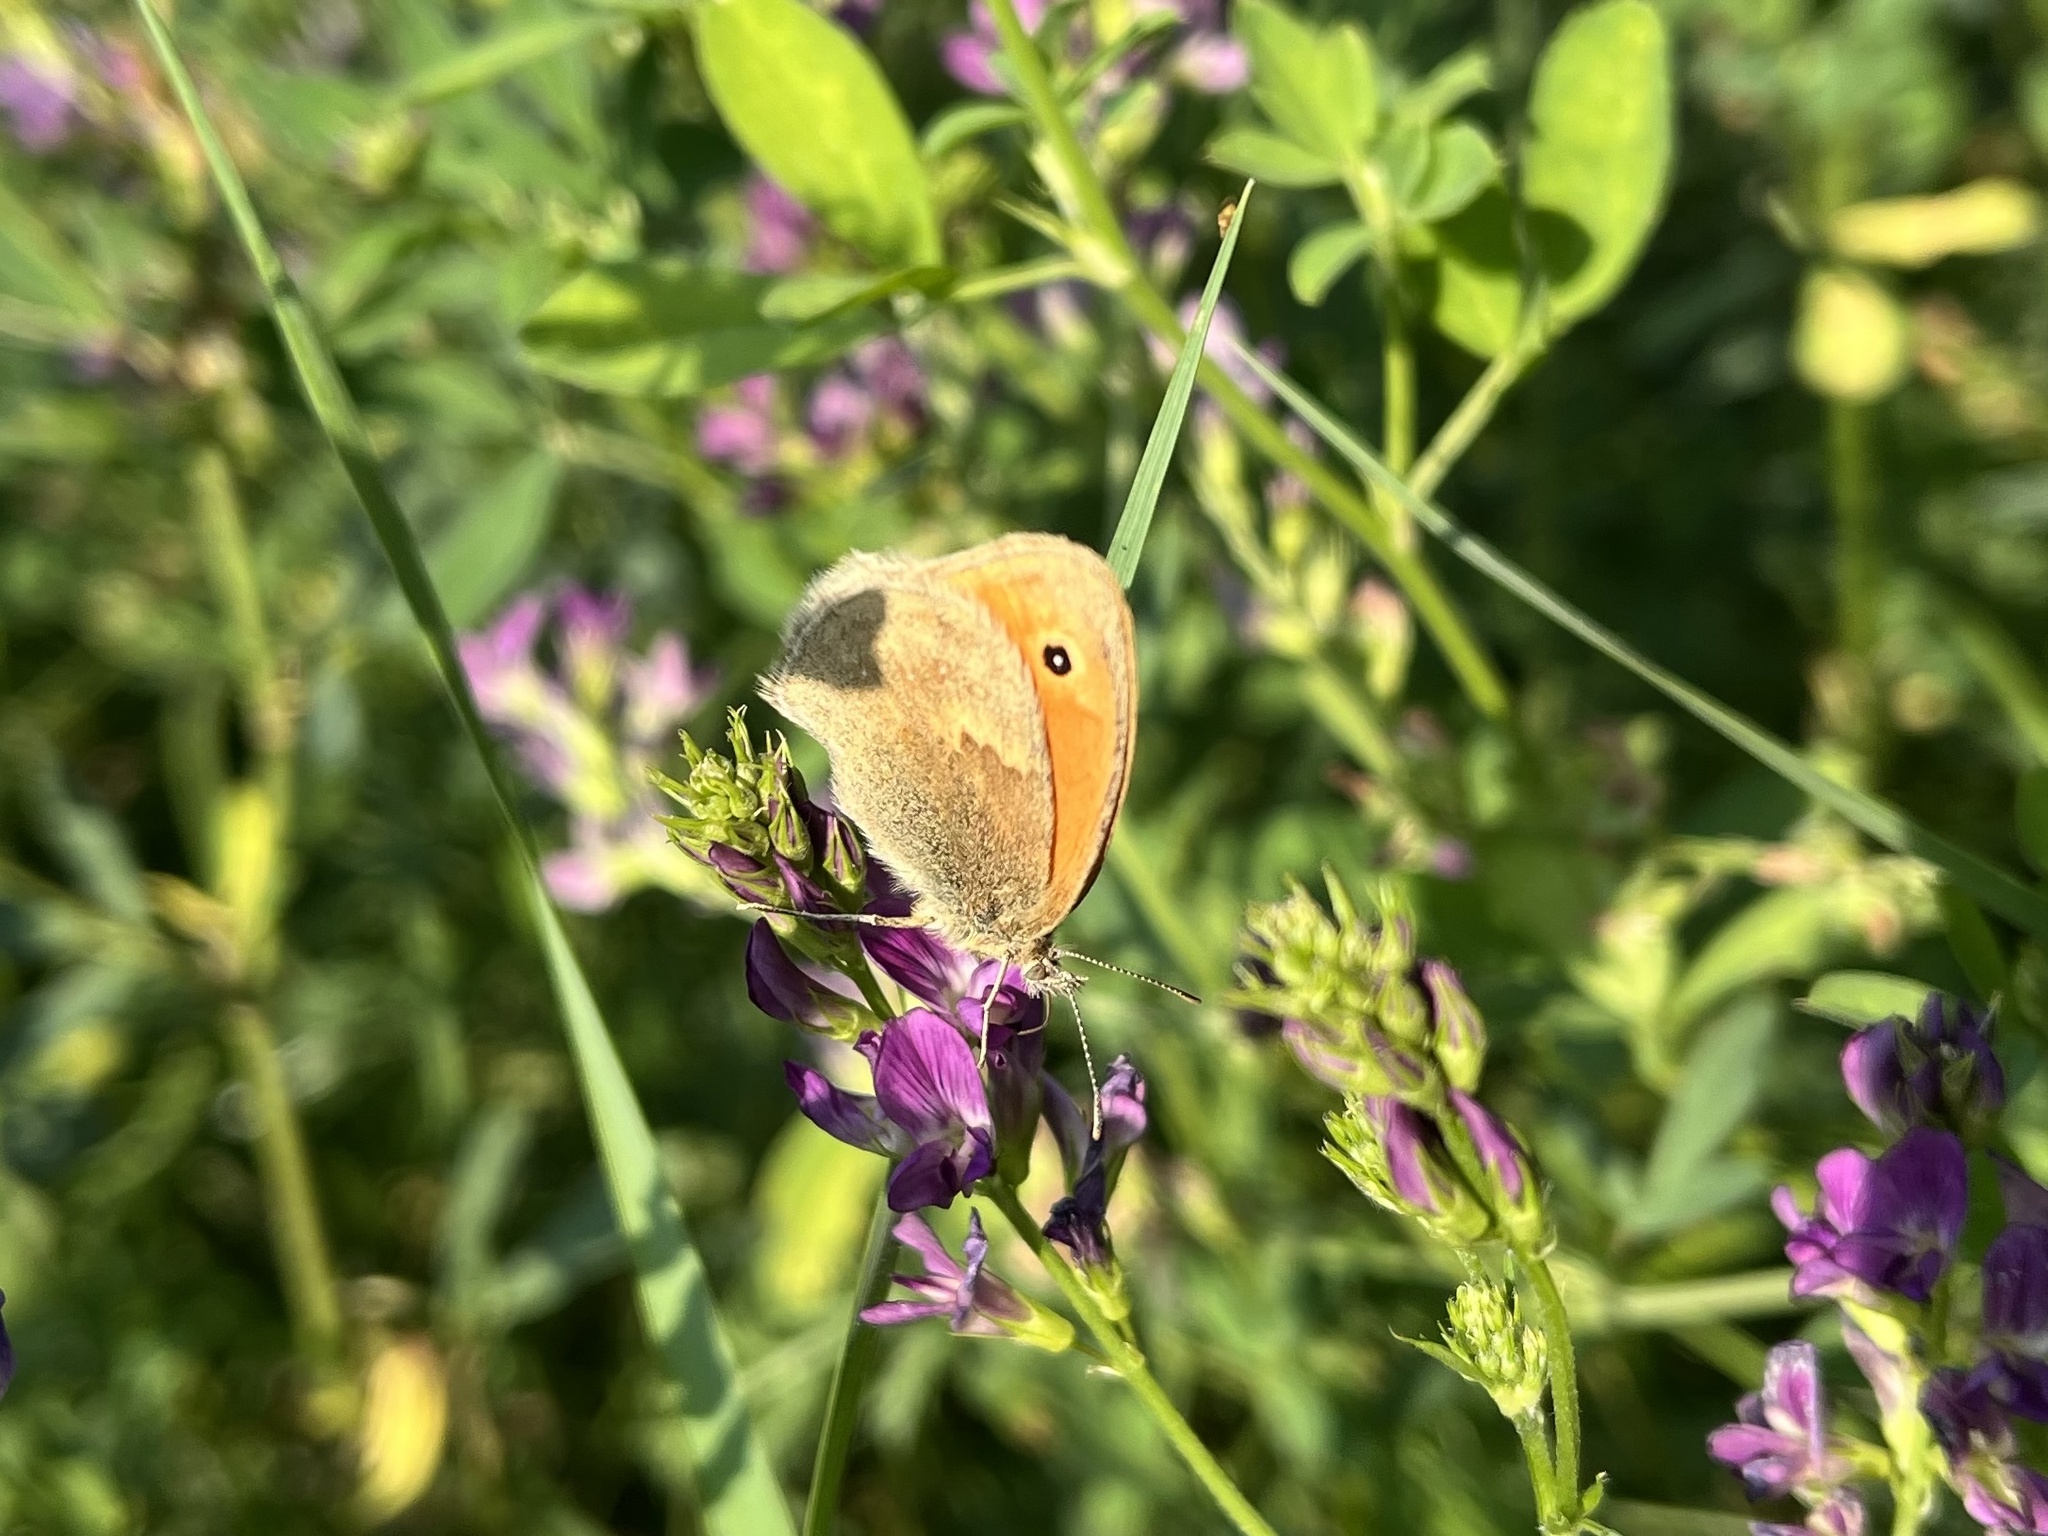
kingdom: Animalia
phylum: Arthropoda
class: Insecta
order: Lepidoptera
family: Nymphalidae
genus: Coenonympha
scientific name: Coenonympha pamphilus
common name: Small heath
